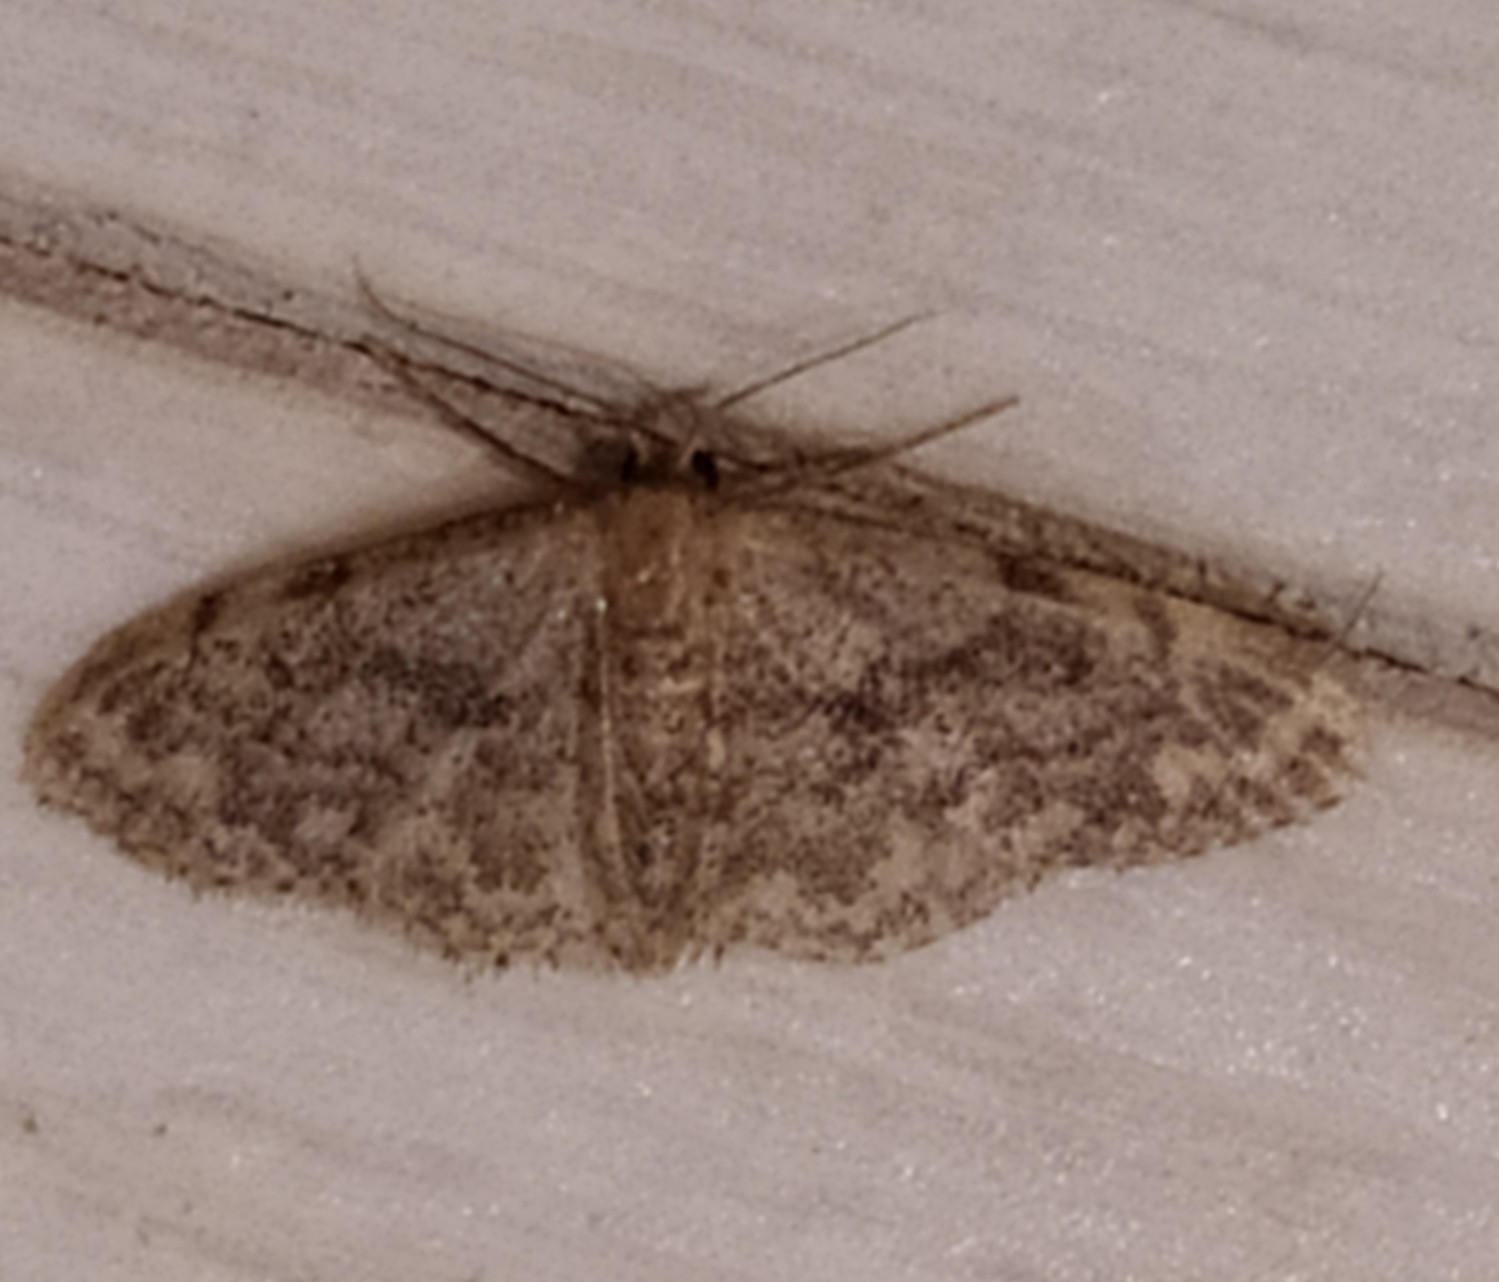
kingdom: Animalia
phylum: Arthropoda
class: Insecta
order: Lepidoptera
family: Geometridae
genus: Idaea
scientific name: Idaea inquinata
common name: Rusty wave
